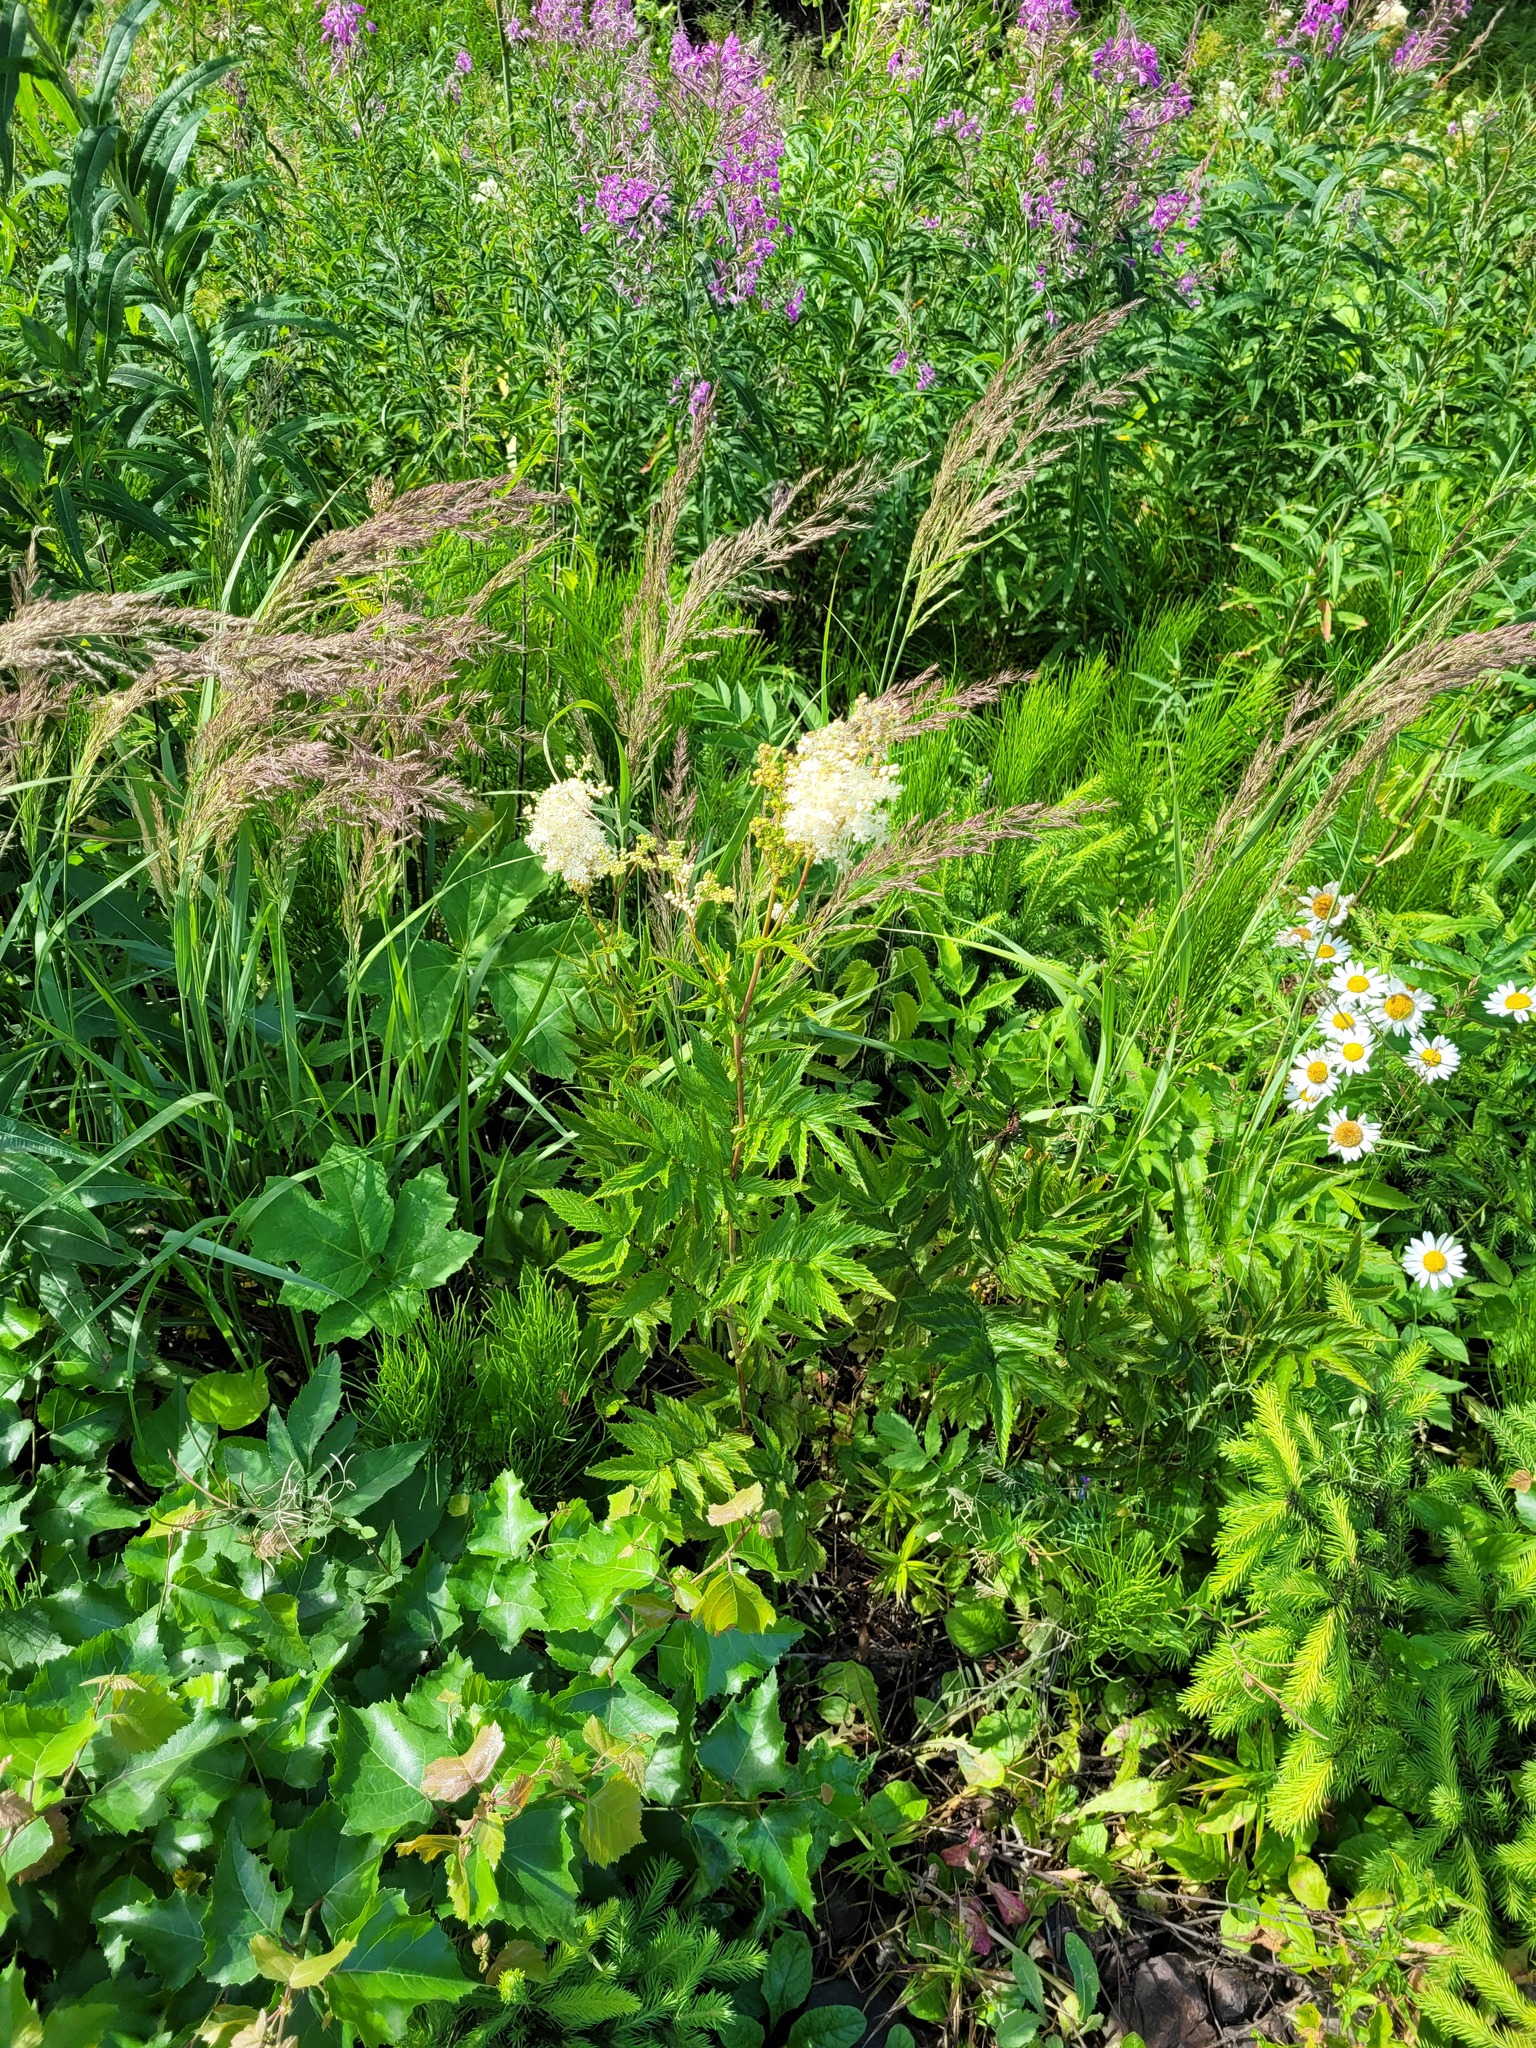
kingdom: Plantae
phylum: Tracheophyta
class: Magnoliopsida
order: Rosales
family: Rosaceae
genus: Filipendula
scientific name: Filipendula ulmaria
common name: Meadowsweet
